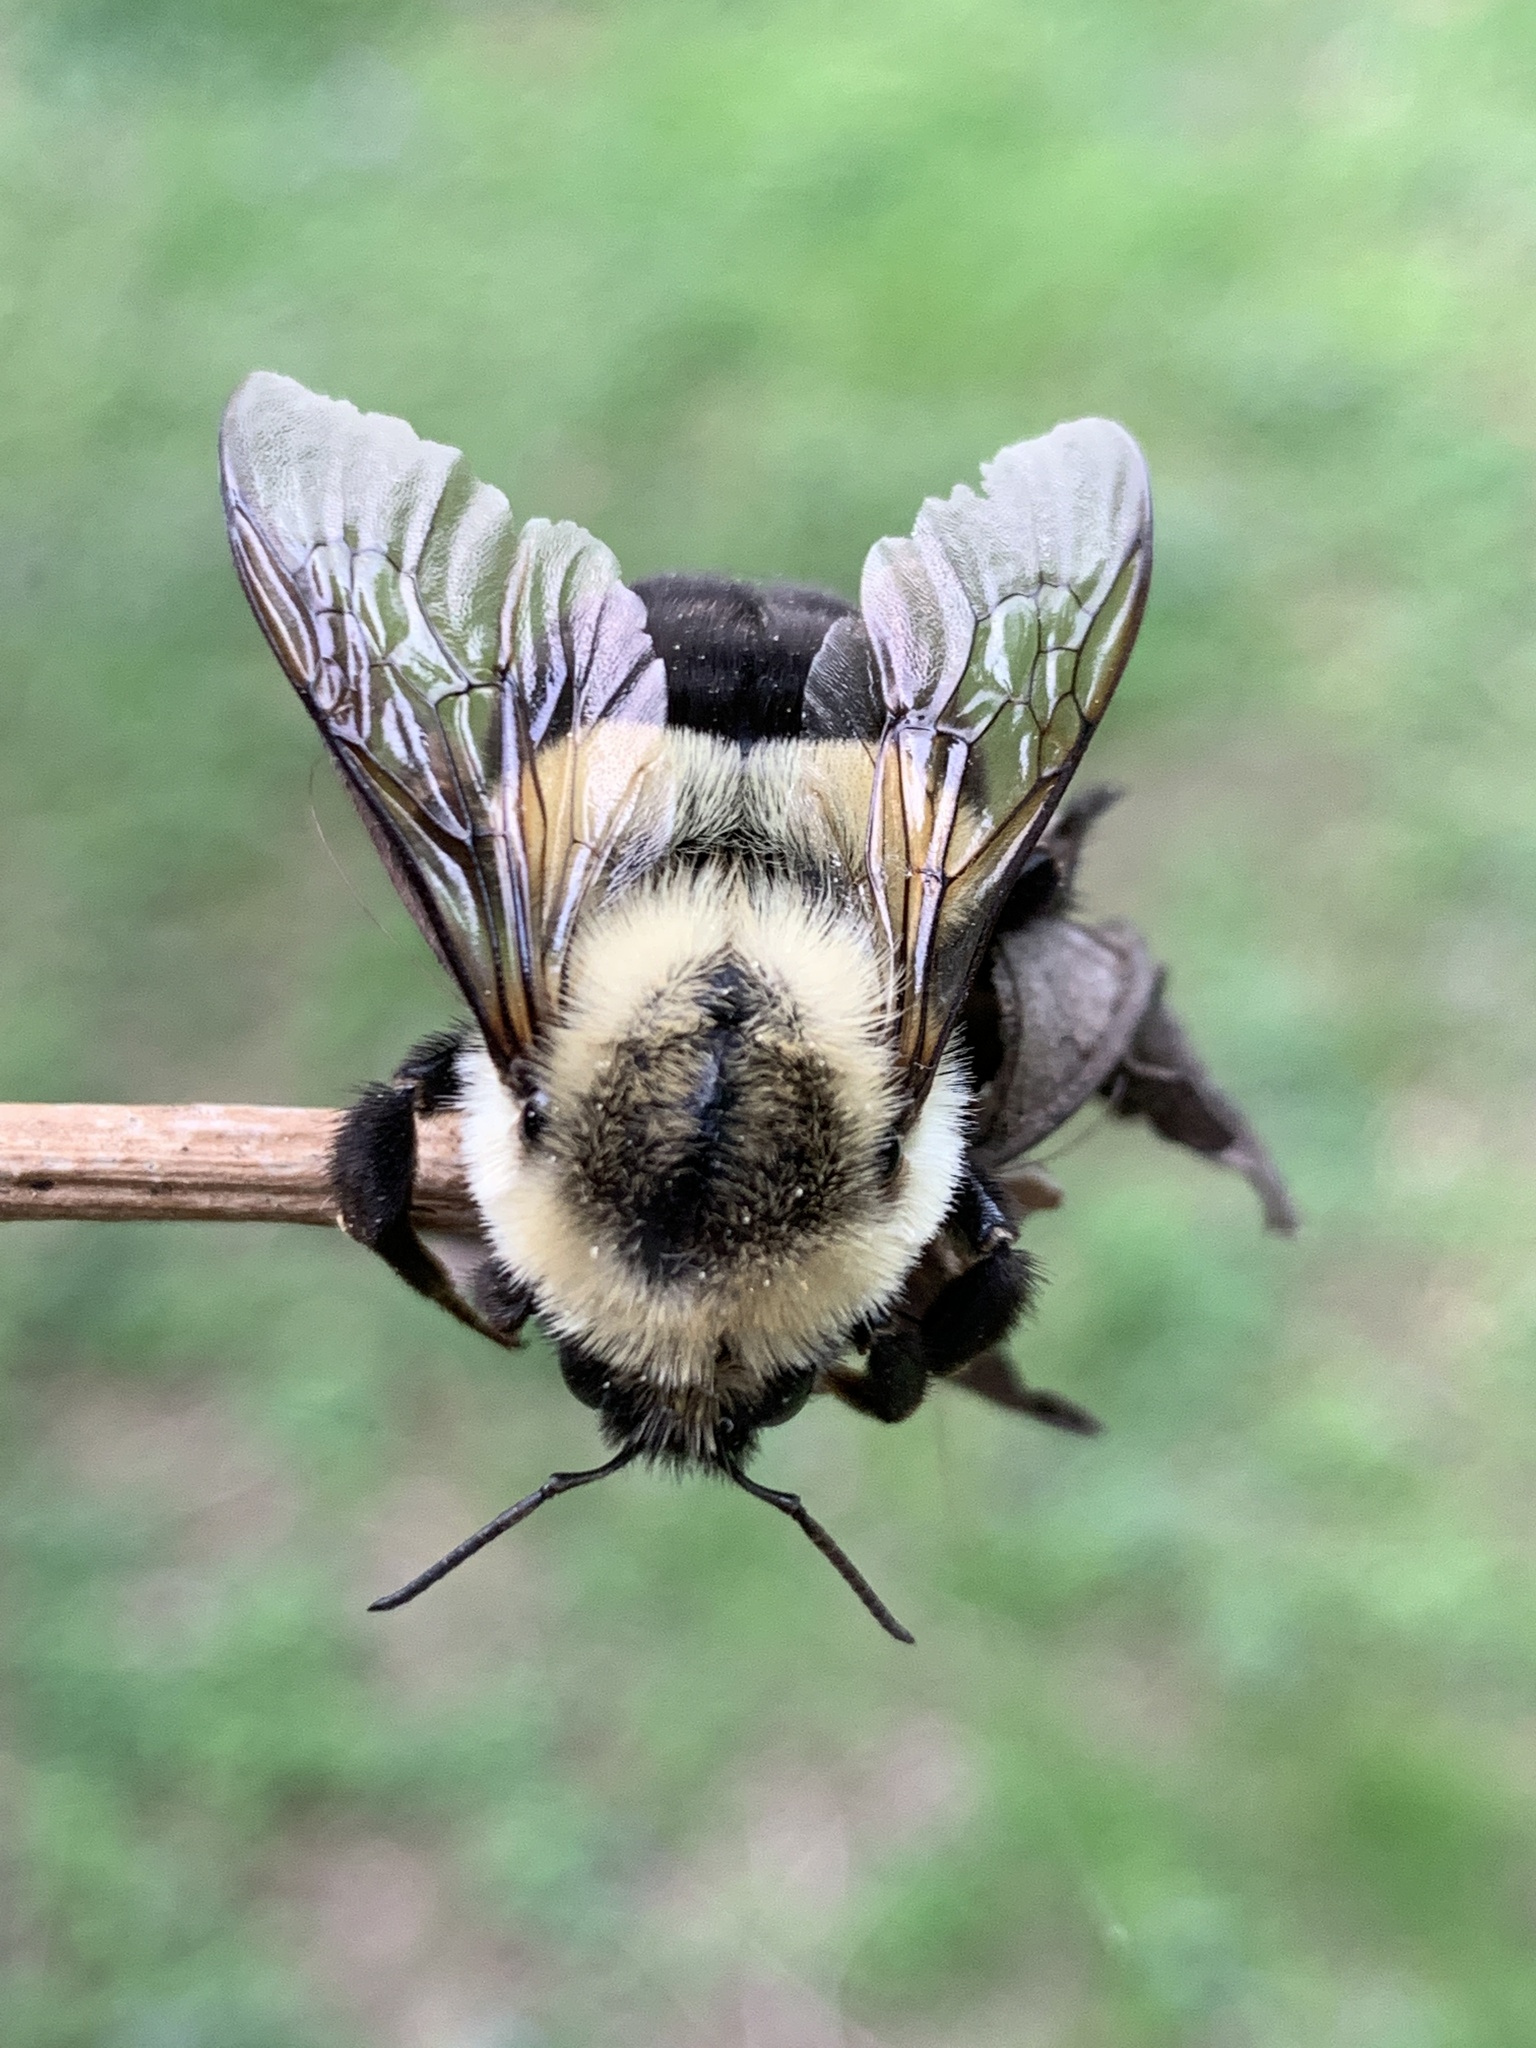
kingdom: Animalia
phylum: Arthropoda
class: Insecta
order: Hymenoptera
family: Apidae
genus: Bombus
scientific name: Bombus impatiens
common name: Common eastern bumble bee
